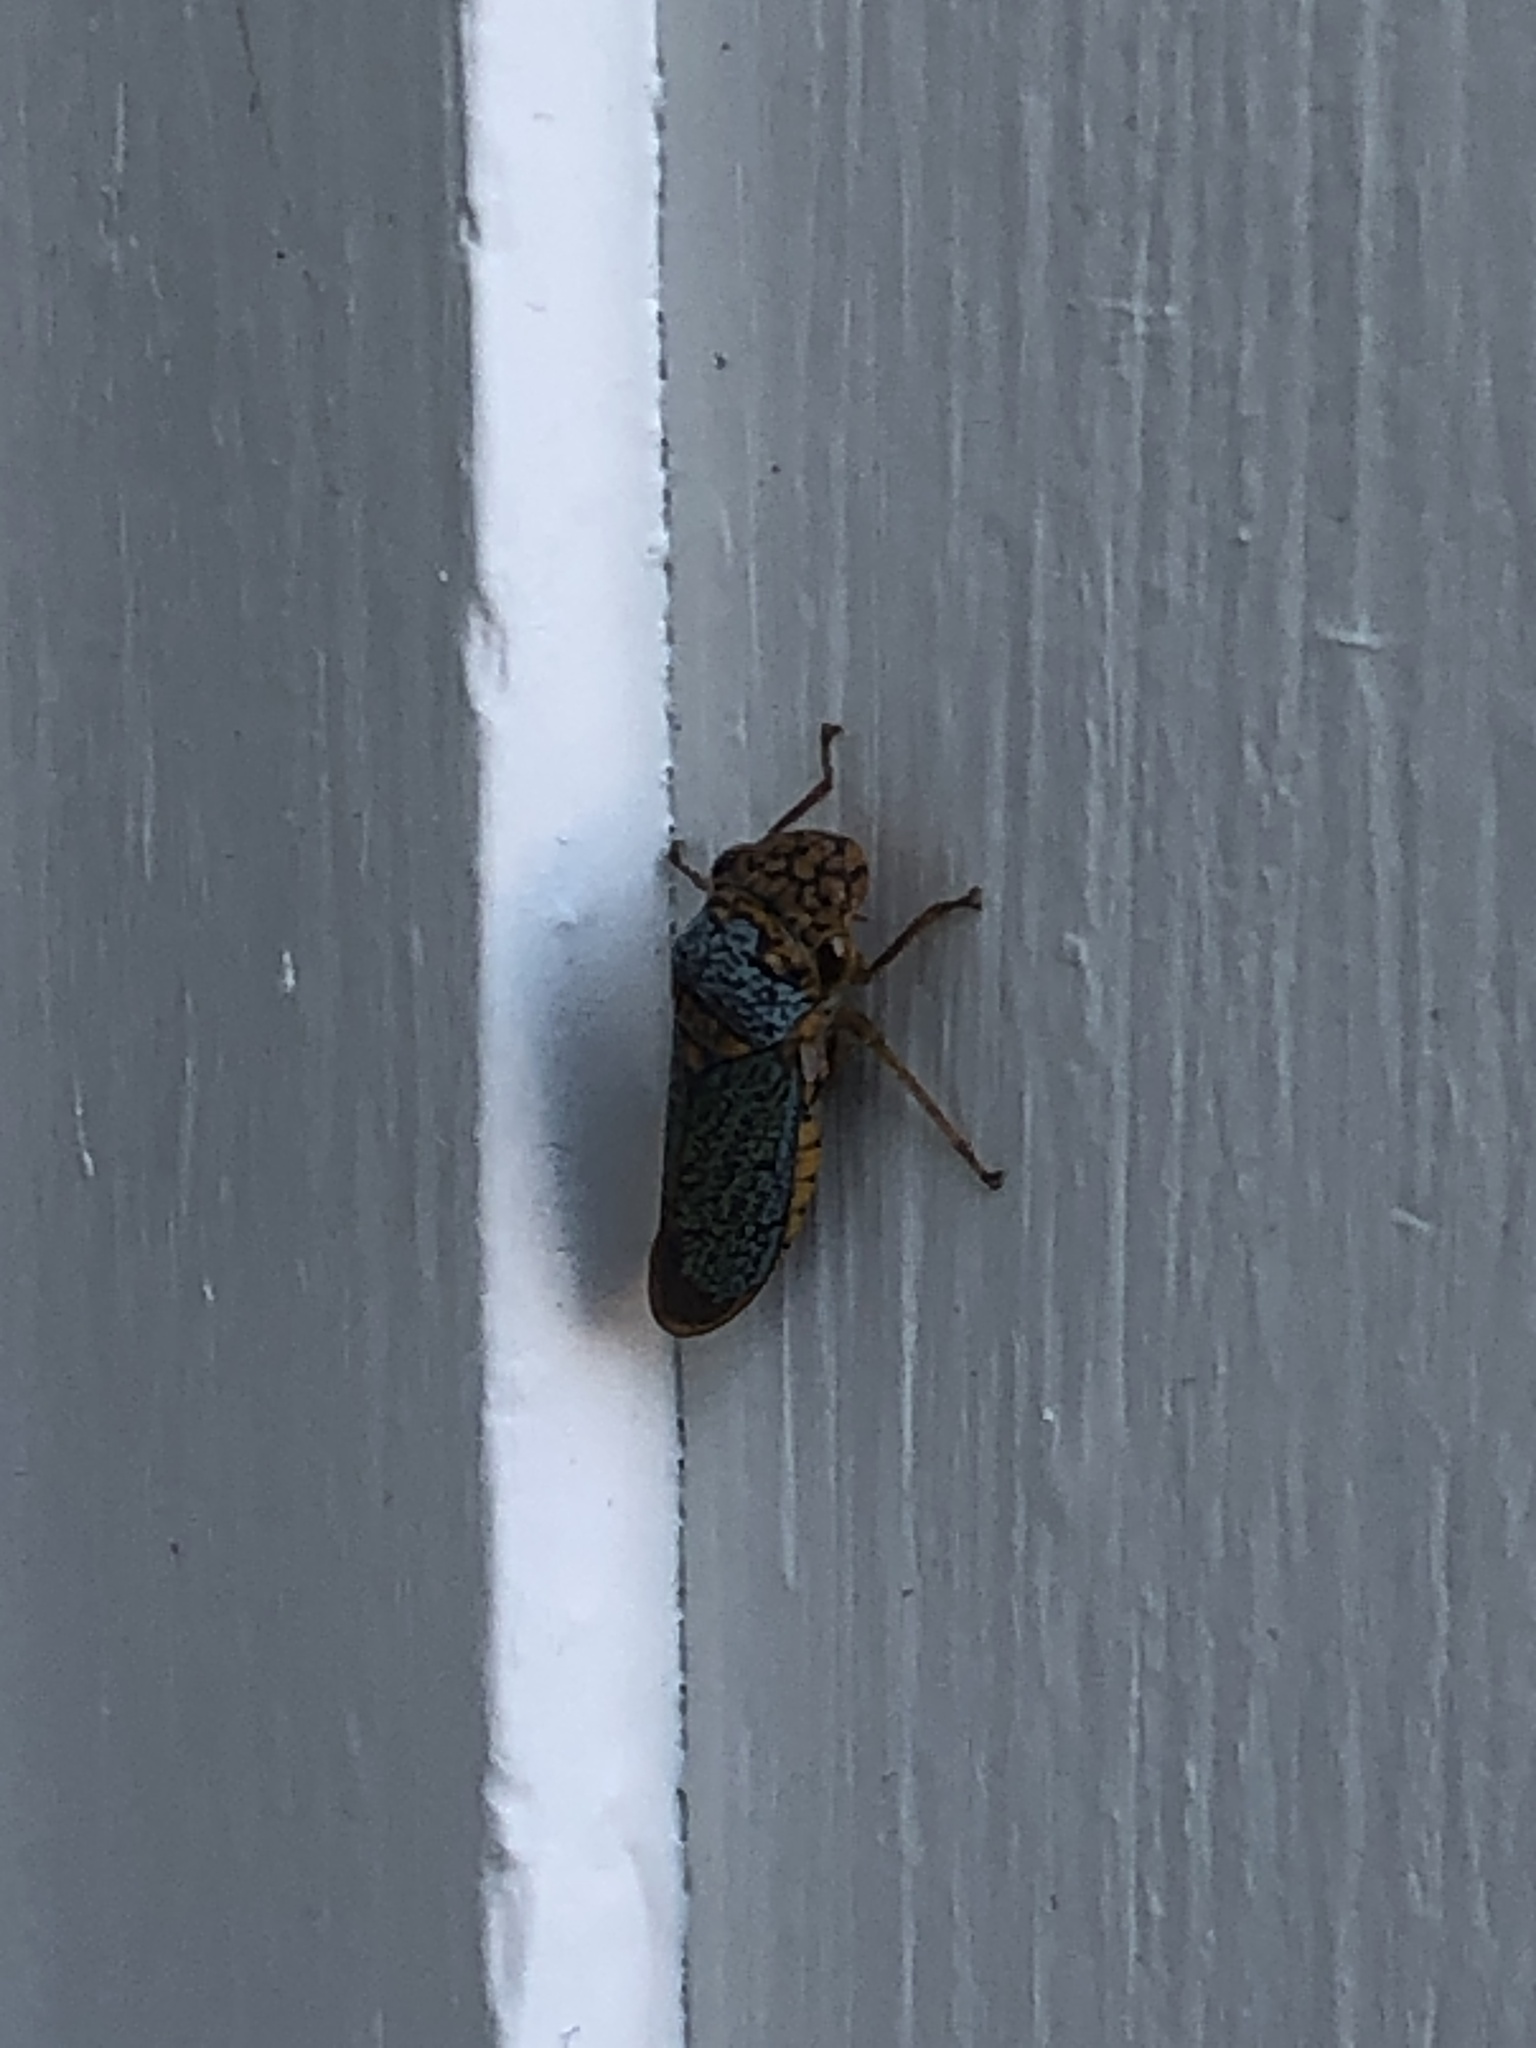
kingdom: Animalia
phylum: Arthropoda
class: Insecta
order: Hemiptera
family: Cicadellidae
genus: Oncometopia
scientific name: Oncometopia orbona
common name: Broad-headed sharpshooter
